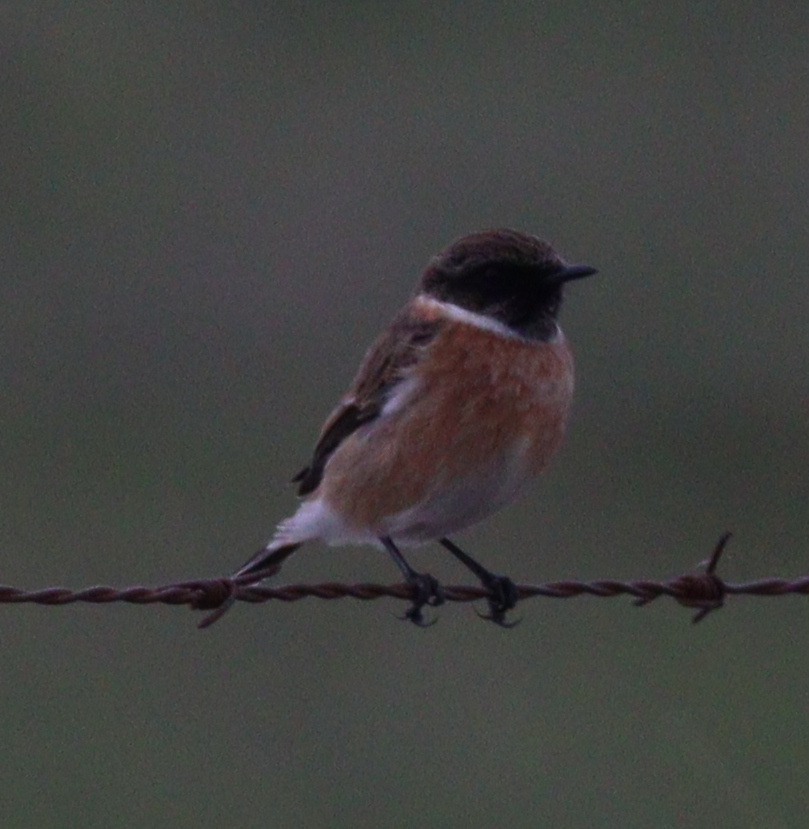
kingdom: Animalia
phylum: Chordata
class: Aves
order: Passeriformes
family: Muscicapidae
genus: Saxicola
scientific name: Saxicola rubicola
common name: European stonechat
